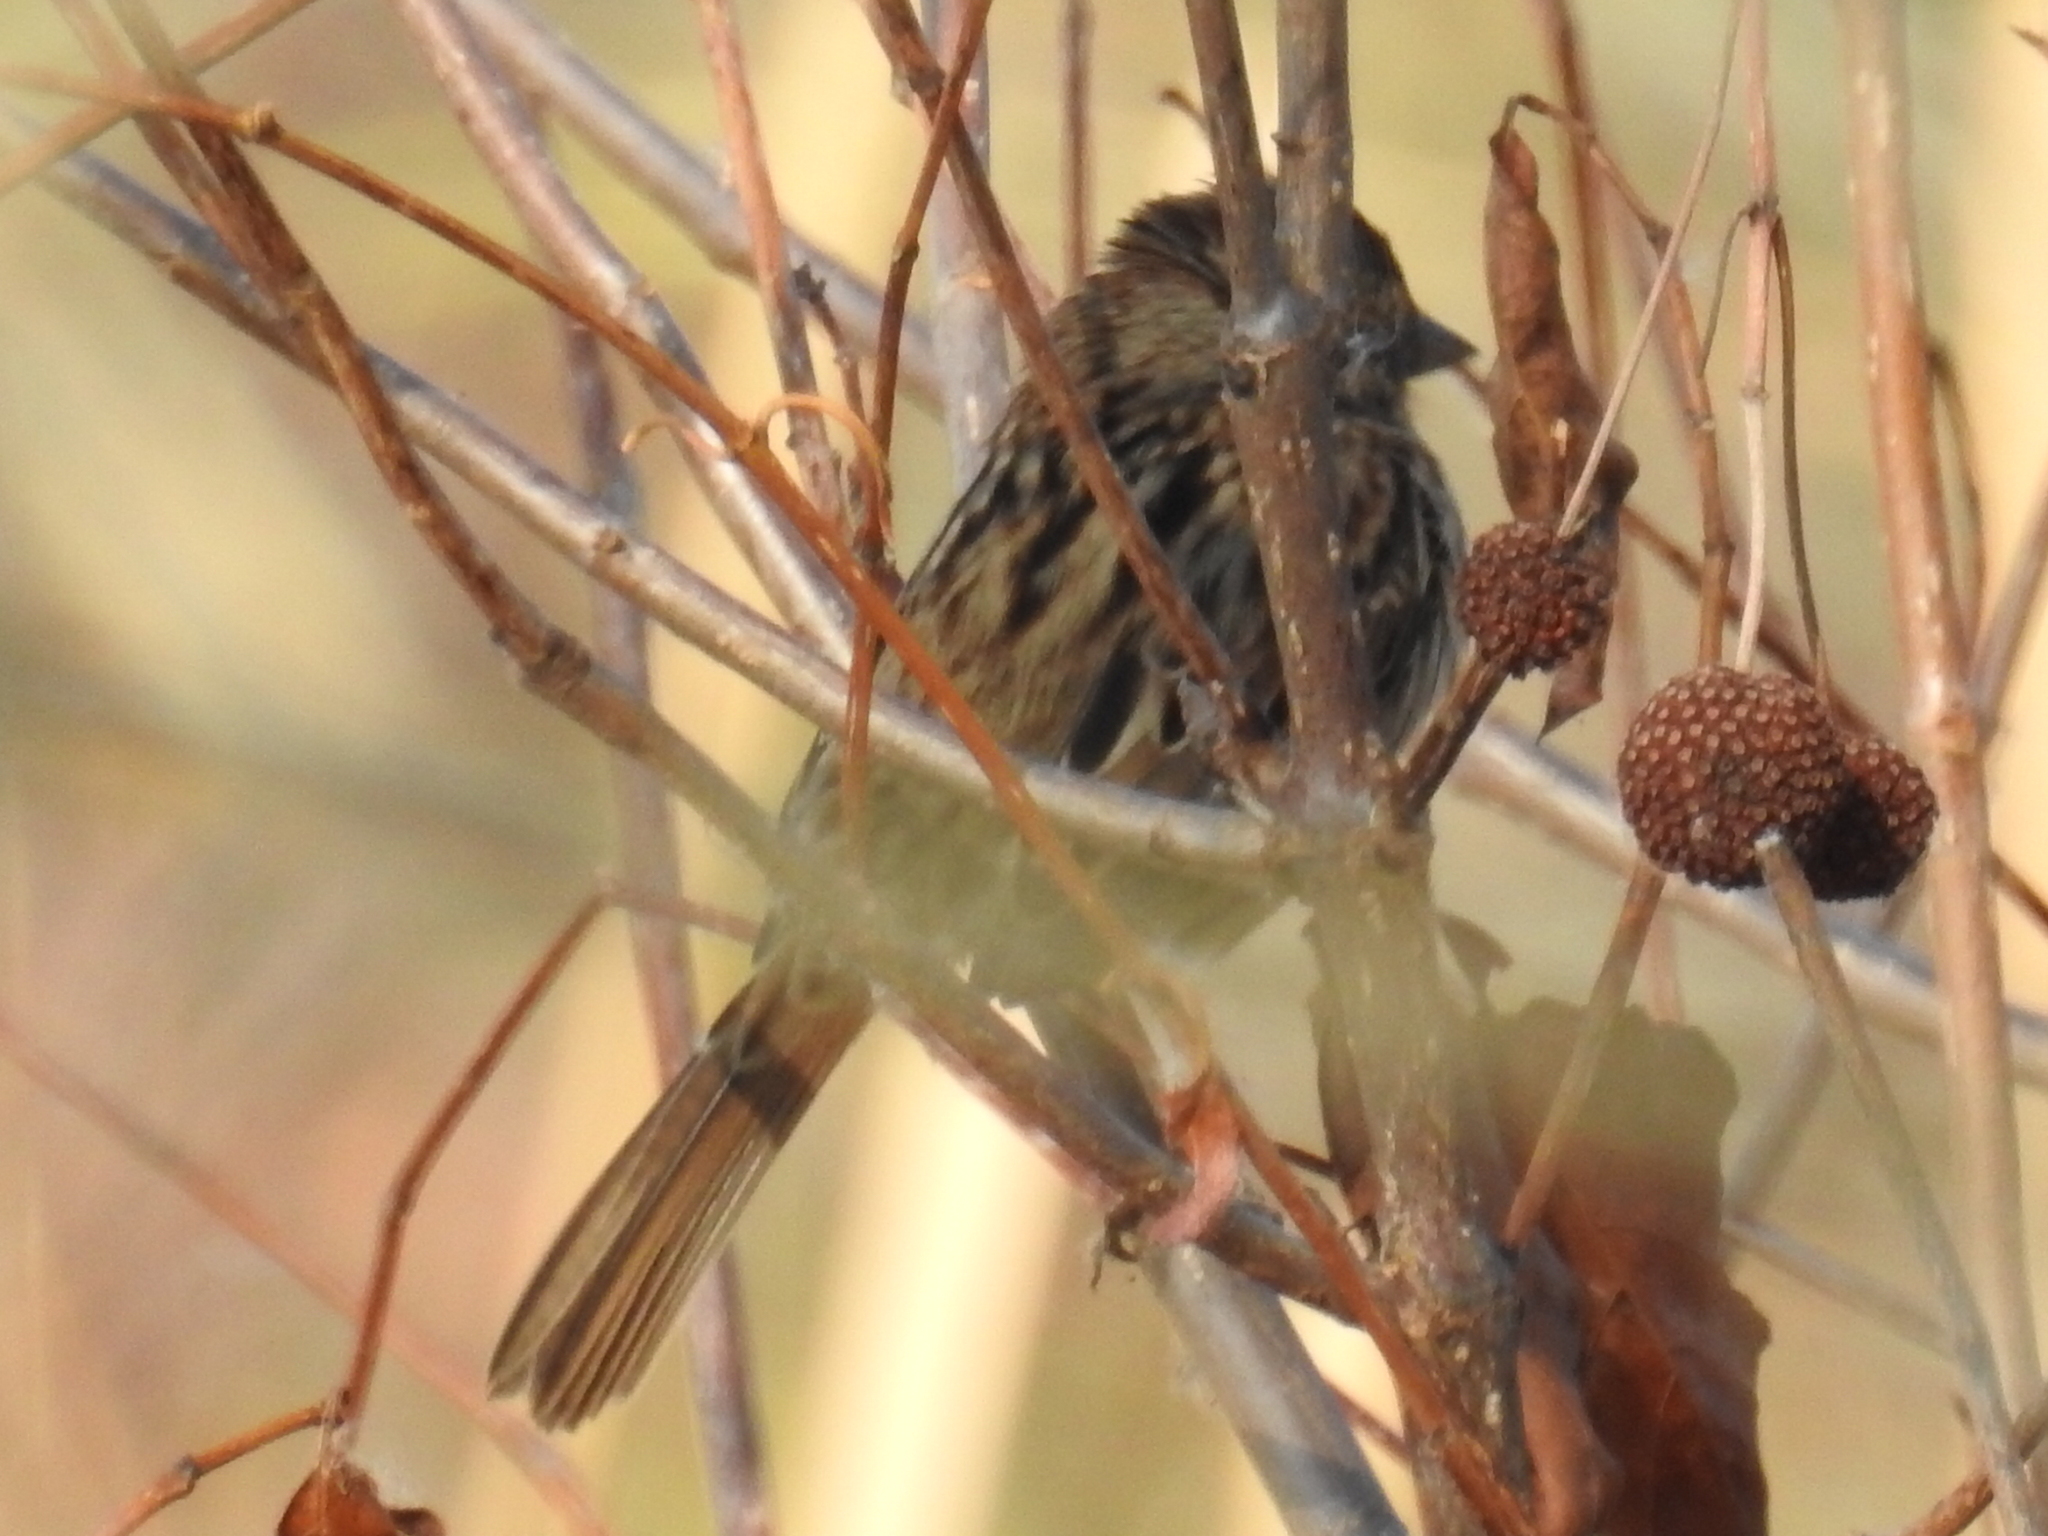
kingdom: Animalia
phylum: Chordata
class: Aves
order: Passeriformes
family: Passerellidae
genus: Melospiza
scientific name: Melospiza melodia
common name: Song sparrow
